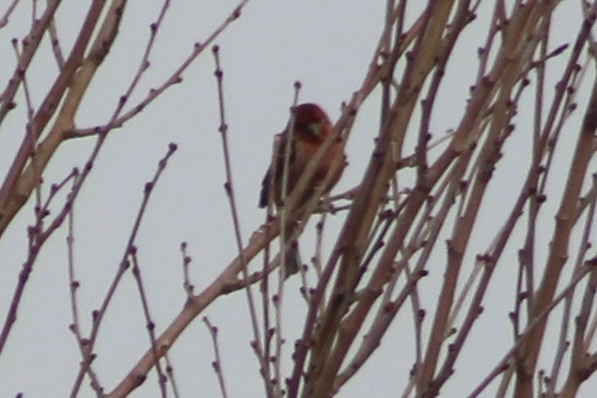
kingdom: Animalia
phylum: Chordata
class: Aves
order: Passeriformes
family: Fringillidae
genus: Haemorhous
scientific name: Haemorhous mexicanus
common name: House finch
